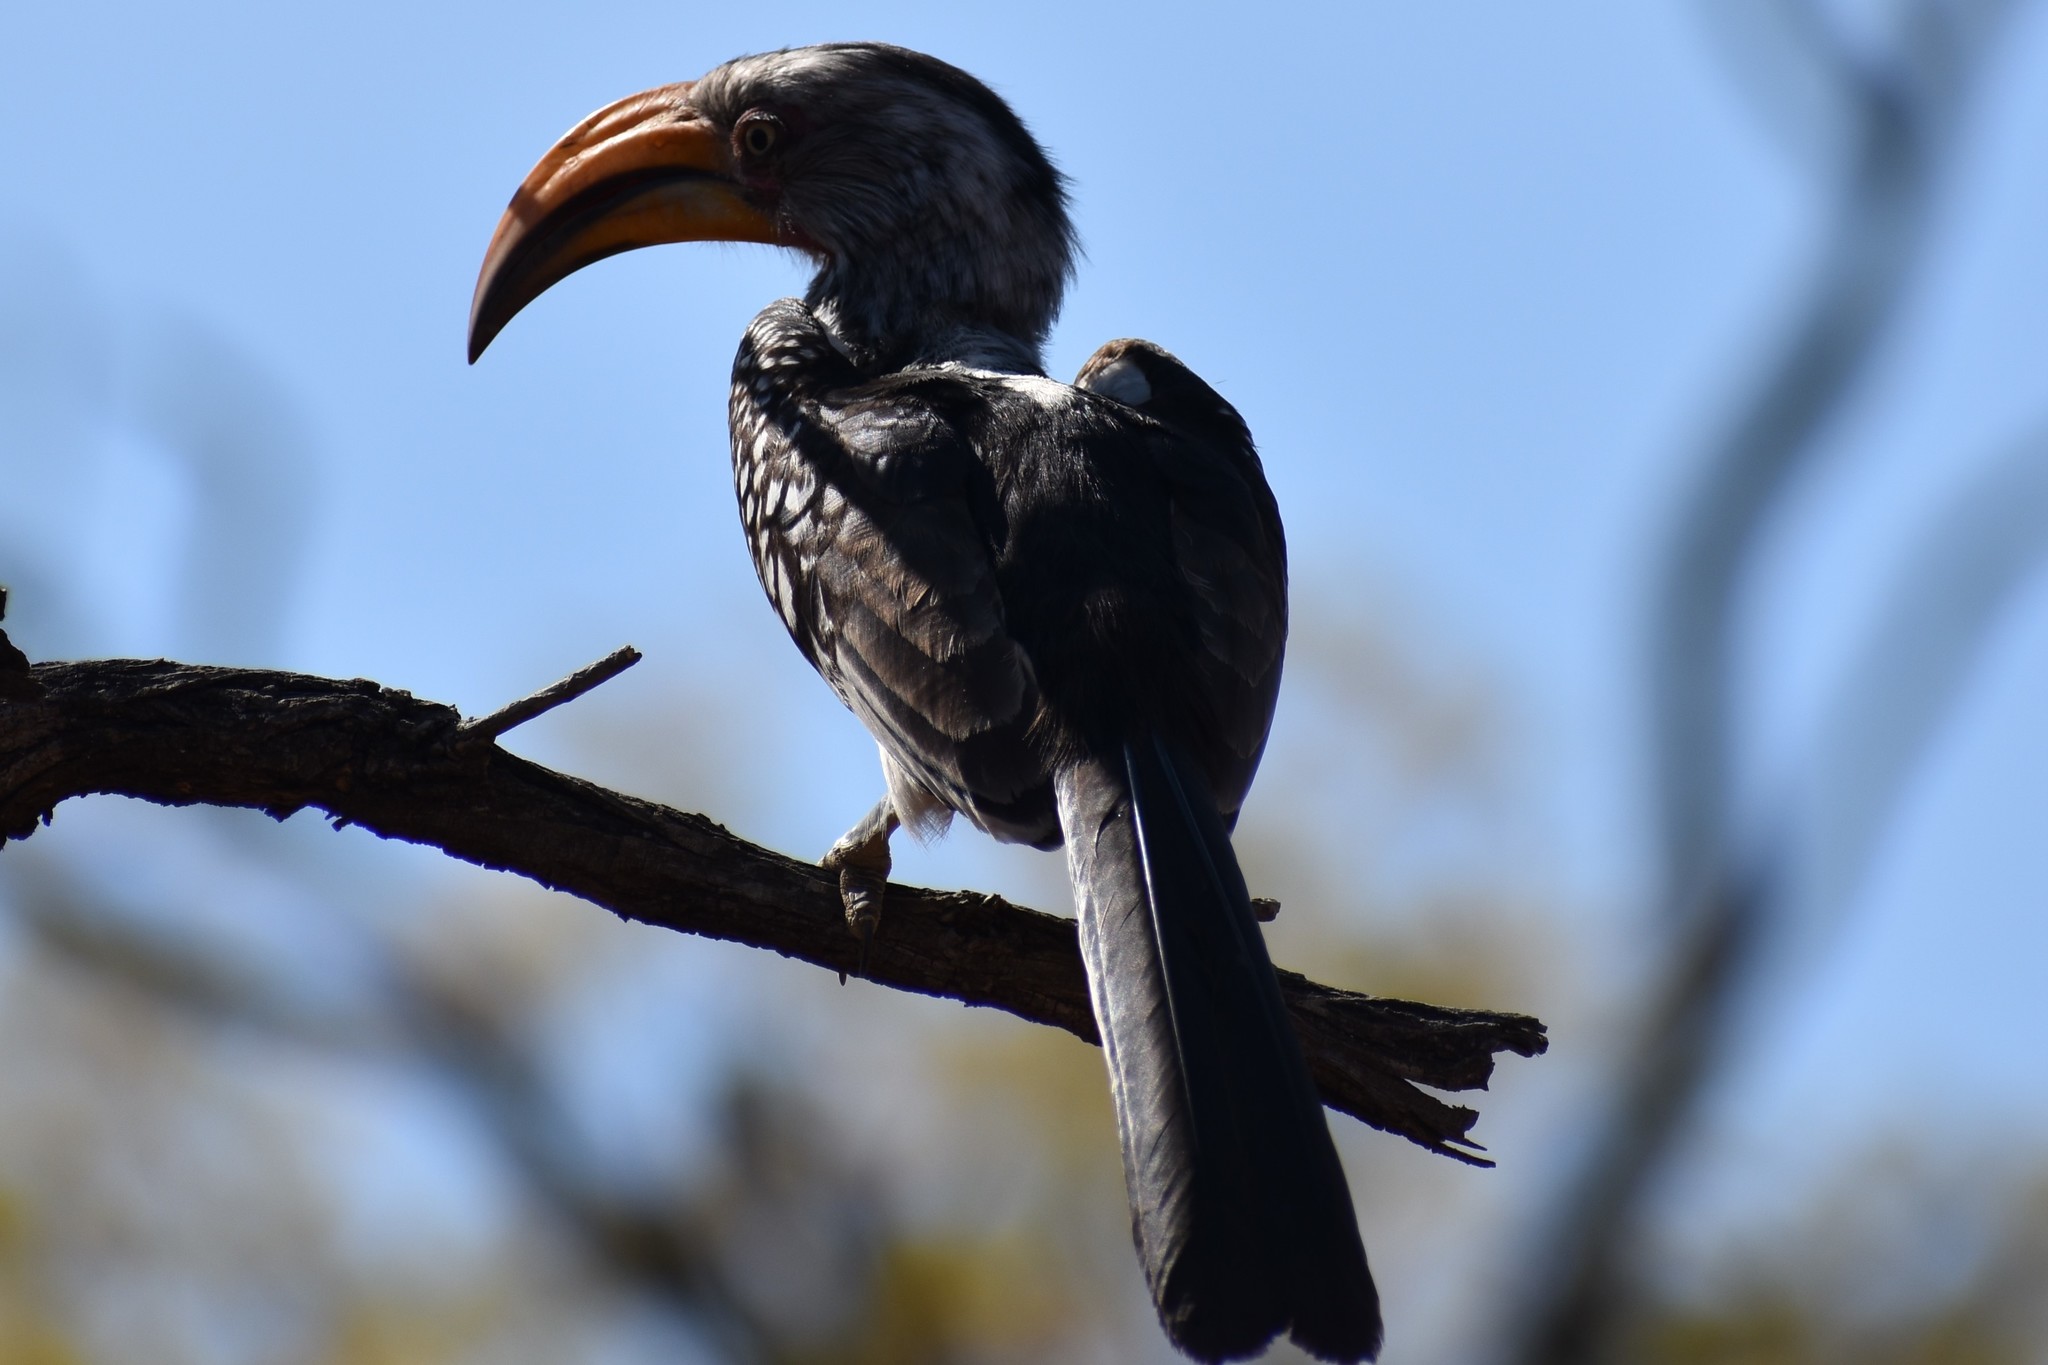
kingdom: Animalia
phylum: Chordata
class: Aves
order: Bucerotiformes
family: Bucerotidae
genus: Tockus
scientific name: Tockus leucomelas
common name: Southern yellow-billed hornbill
